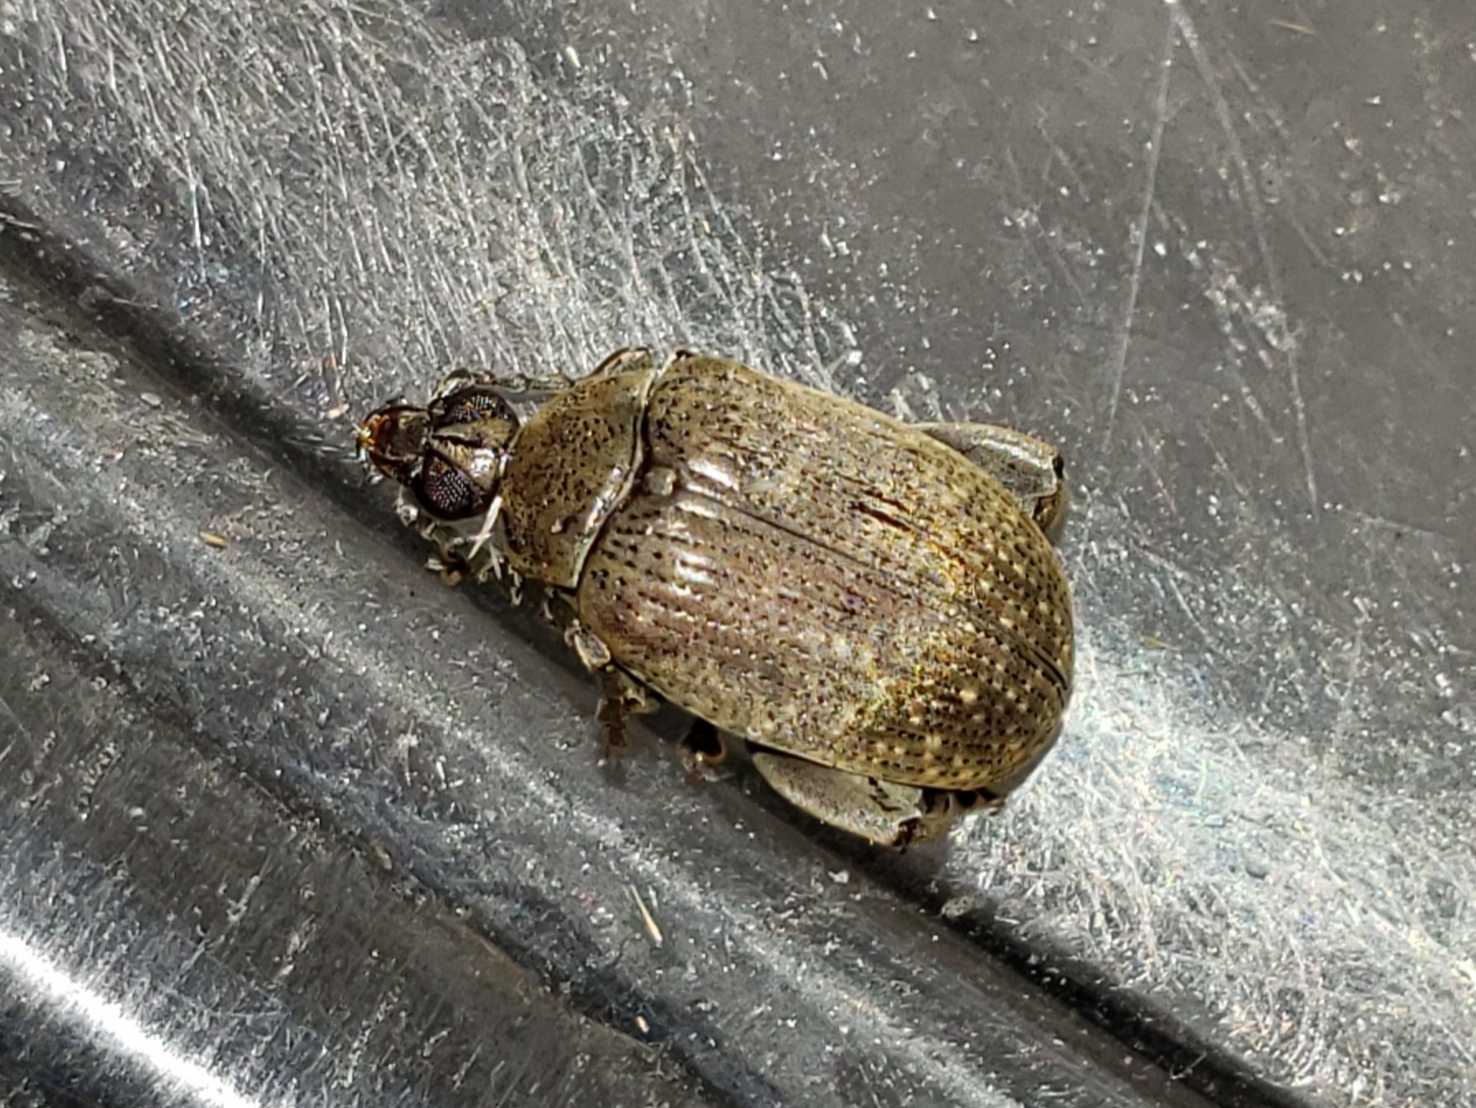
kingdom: Animalia
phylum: Arthropoda
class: Insecta
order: Coleoptera
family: Chrysomelidae
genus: Caryobruchus
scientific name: Caryobruchus gleditsiae
